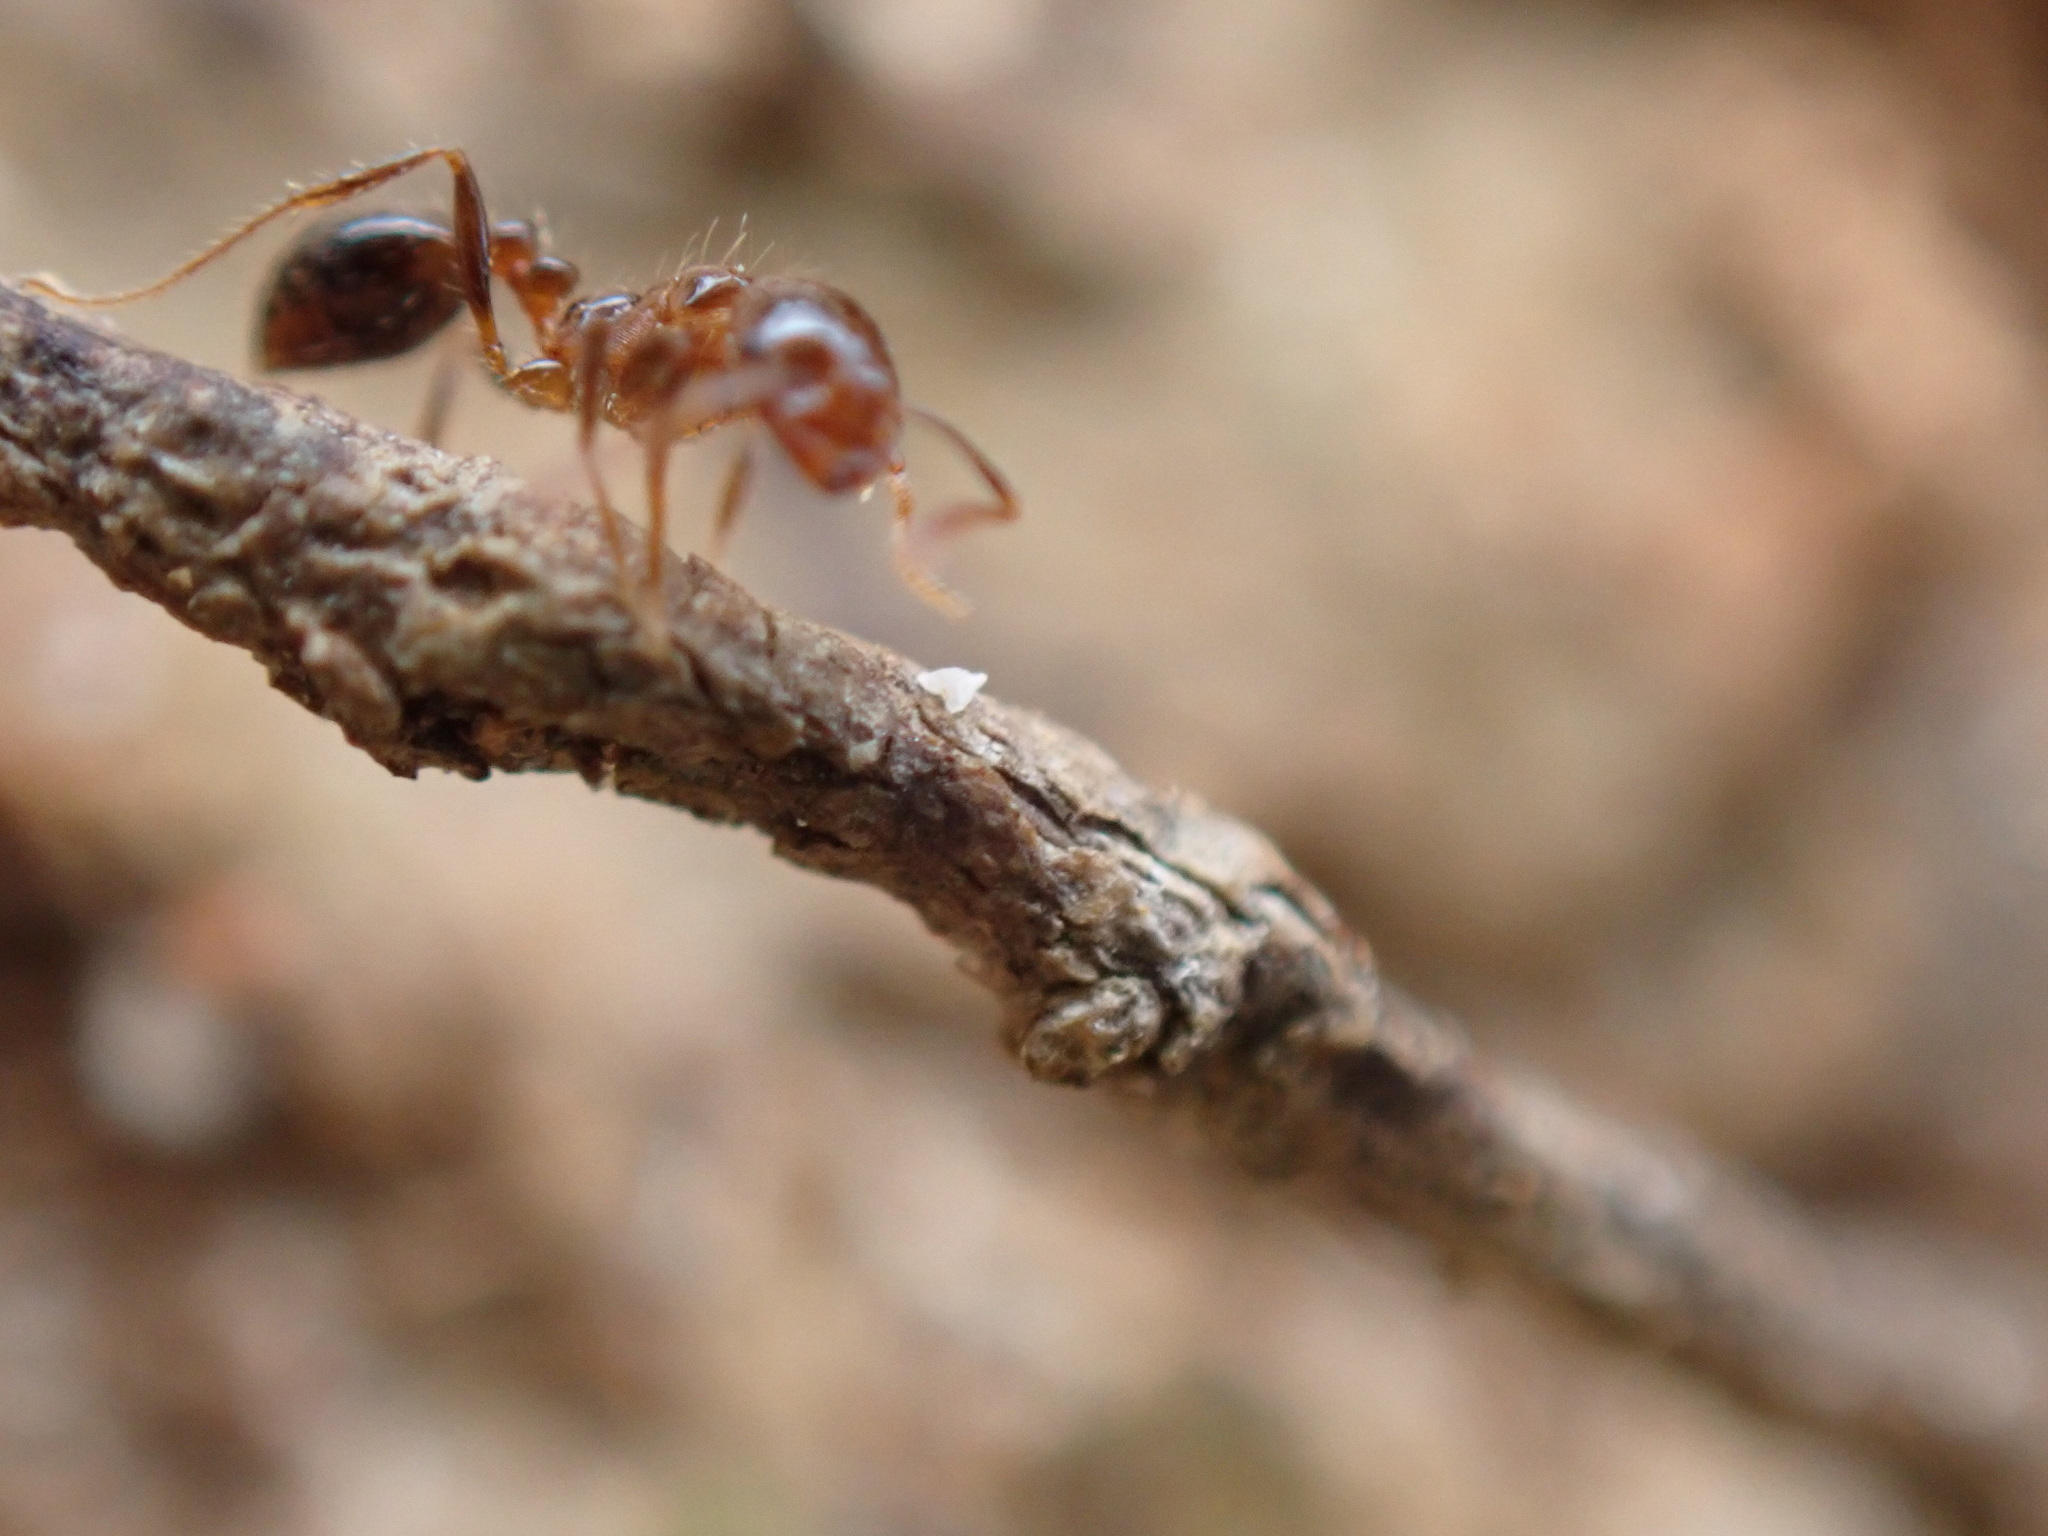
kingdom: Animalia
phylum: Arthropoda
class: Insecta
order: Hymenoptera
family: Formicidae
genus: Solenopsis
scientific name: Solenopsis
